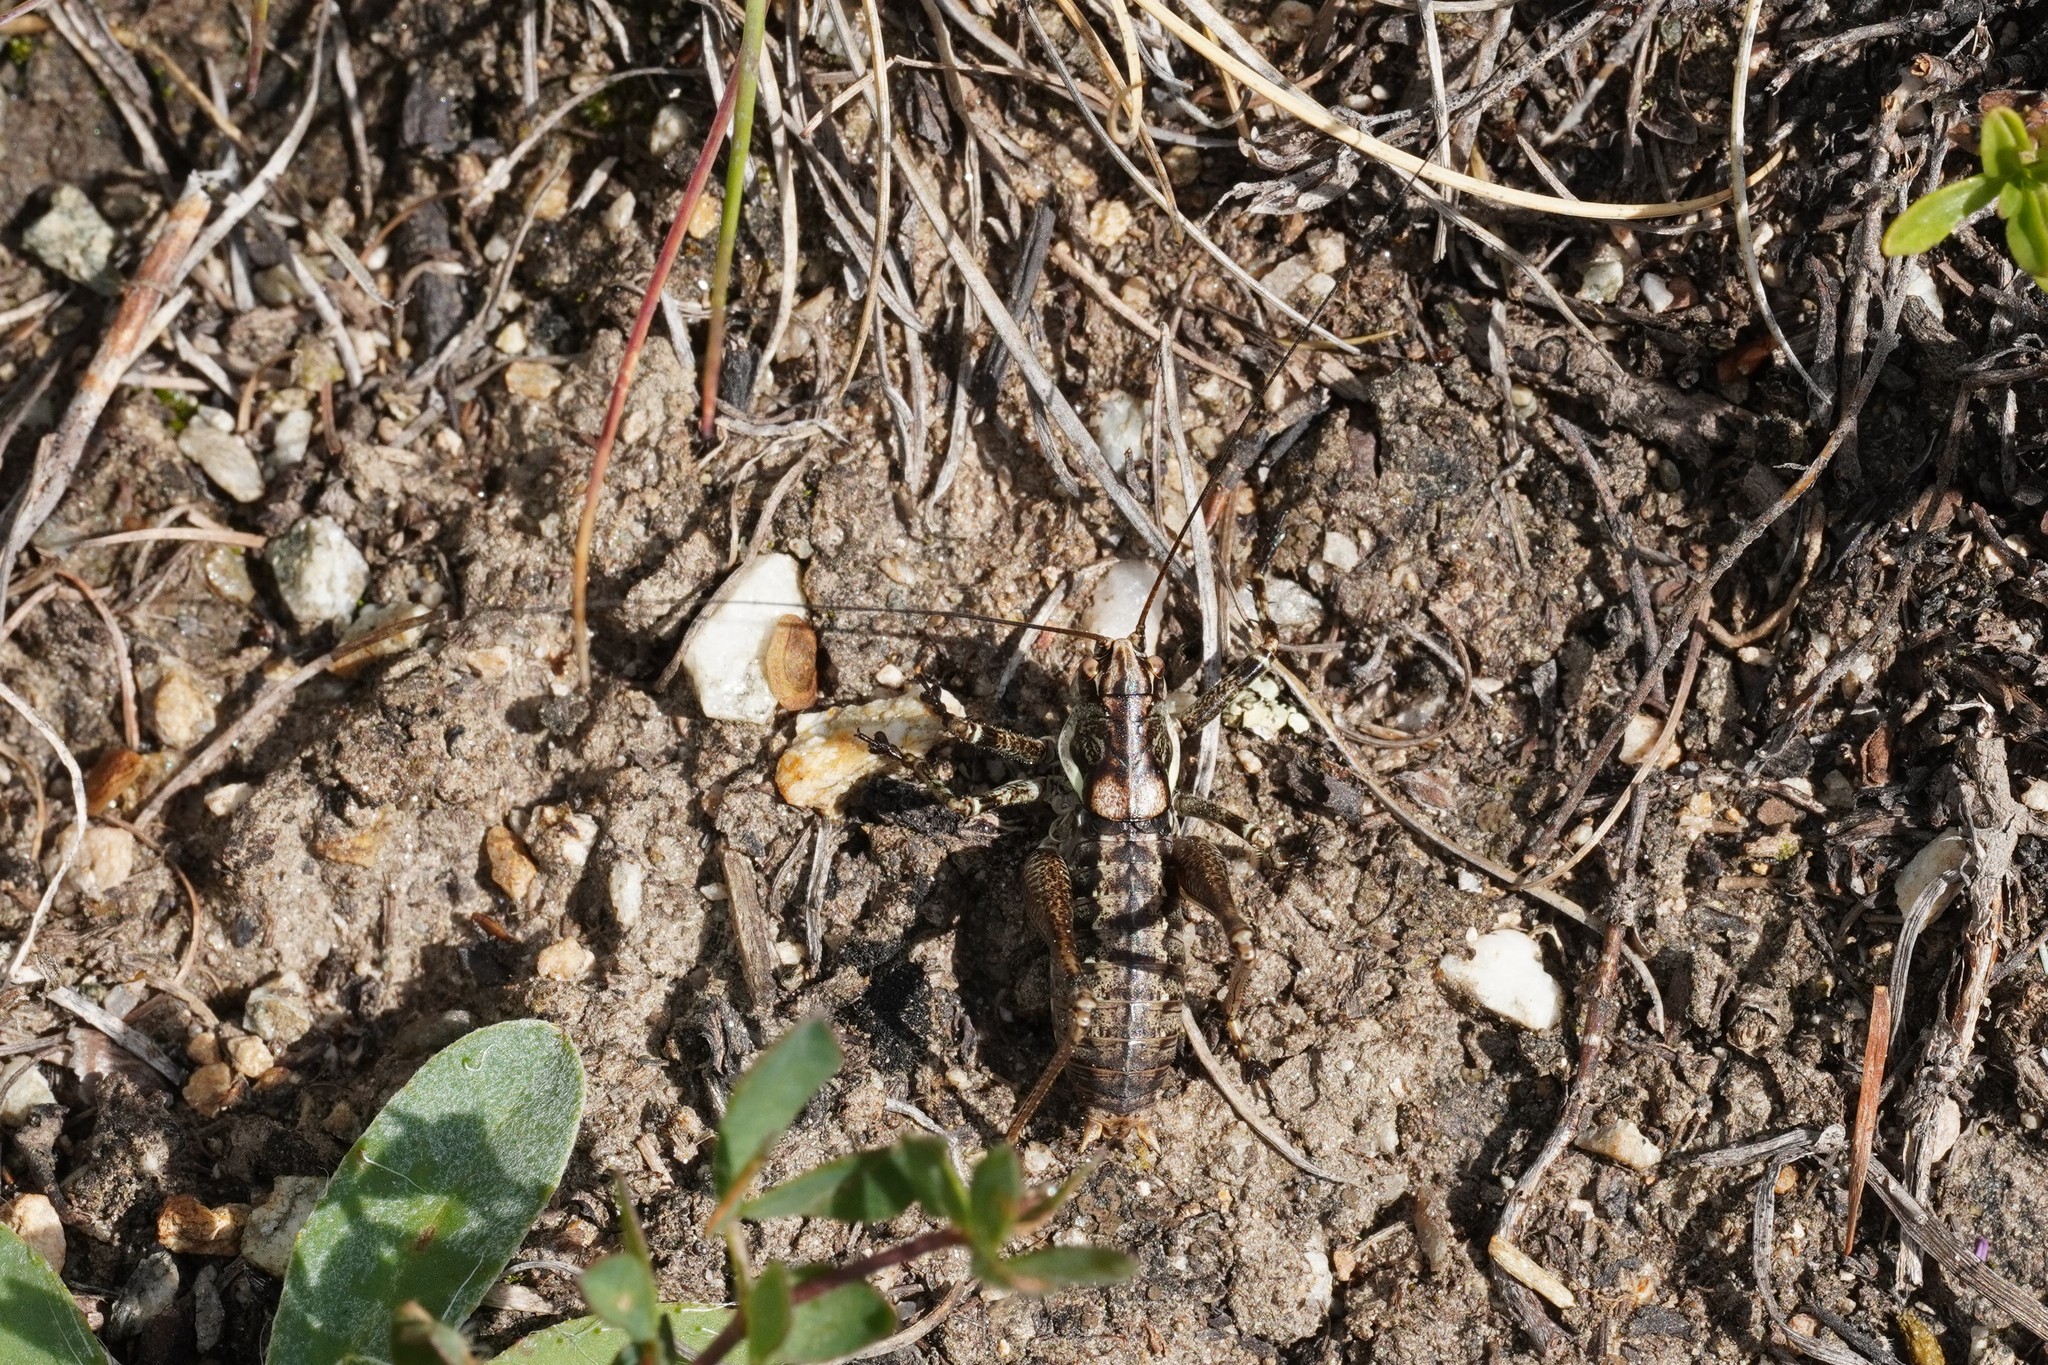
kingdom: Animalia
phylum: Arthropoda
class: Insecta
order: Orthoptera
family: Tettigoniidae
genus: Antaxius
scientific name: Antaxius pedestris
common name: Common mountain bush-cricket
